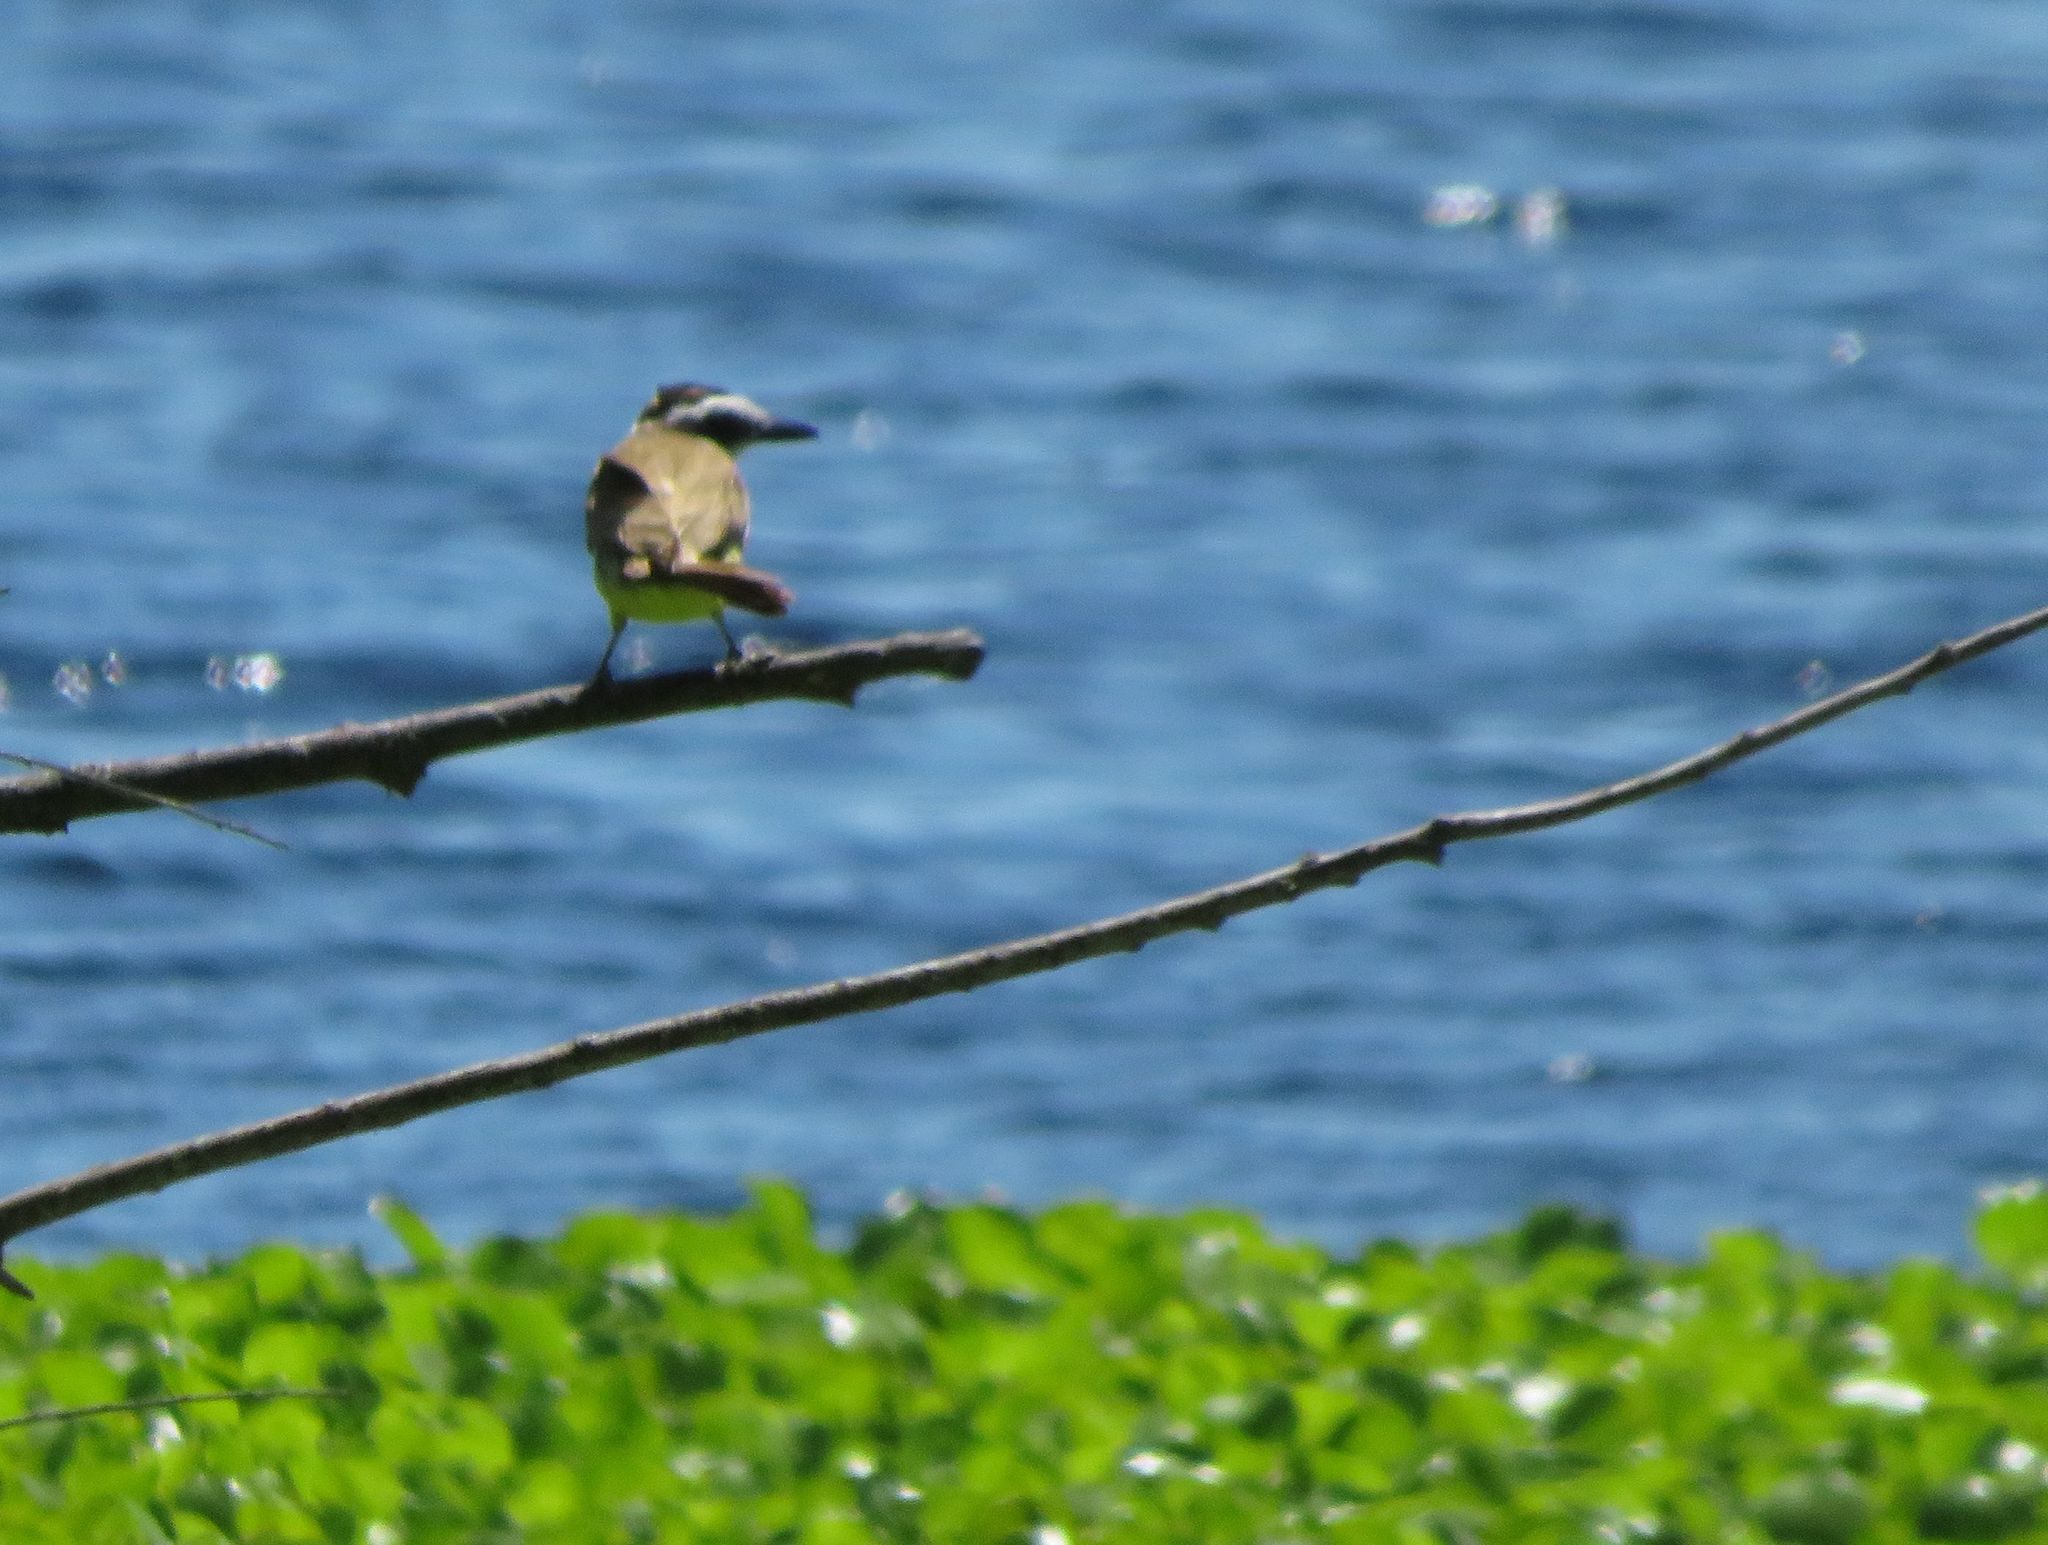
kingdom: Animalia
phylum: Chordata
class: Aves
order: Passeriformes
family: Tyrannidae
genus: Pitangus
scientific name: Pitangus sulphuratus
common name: Great kiskadee
